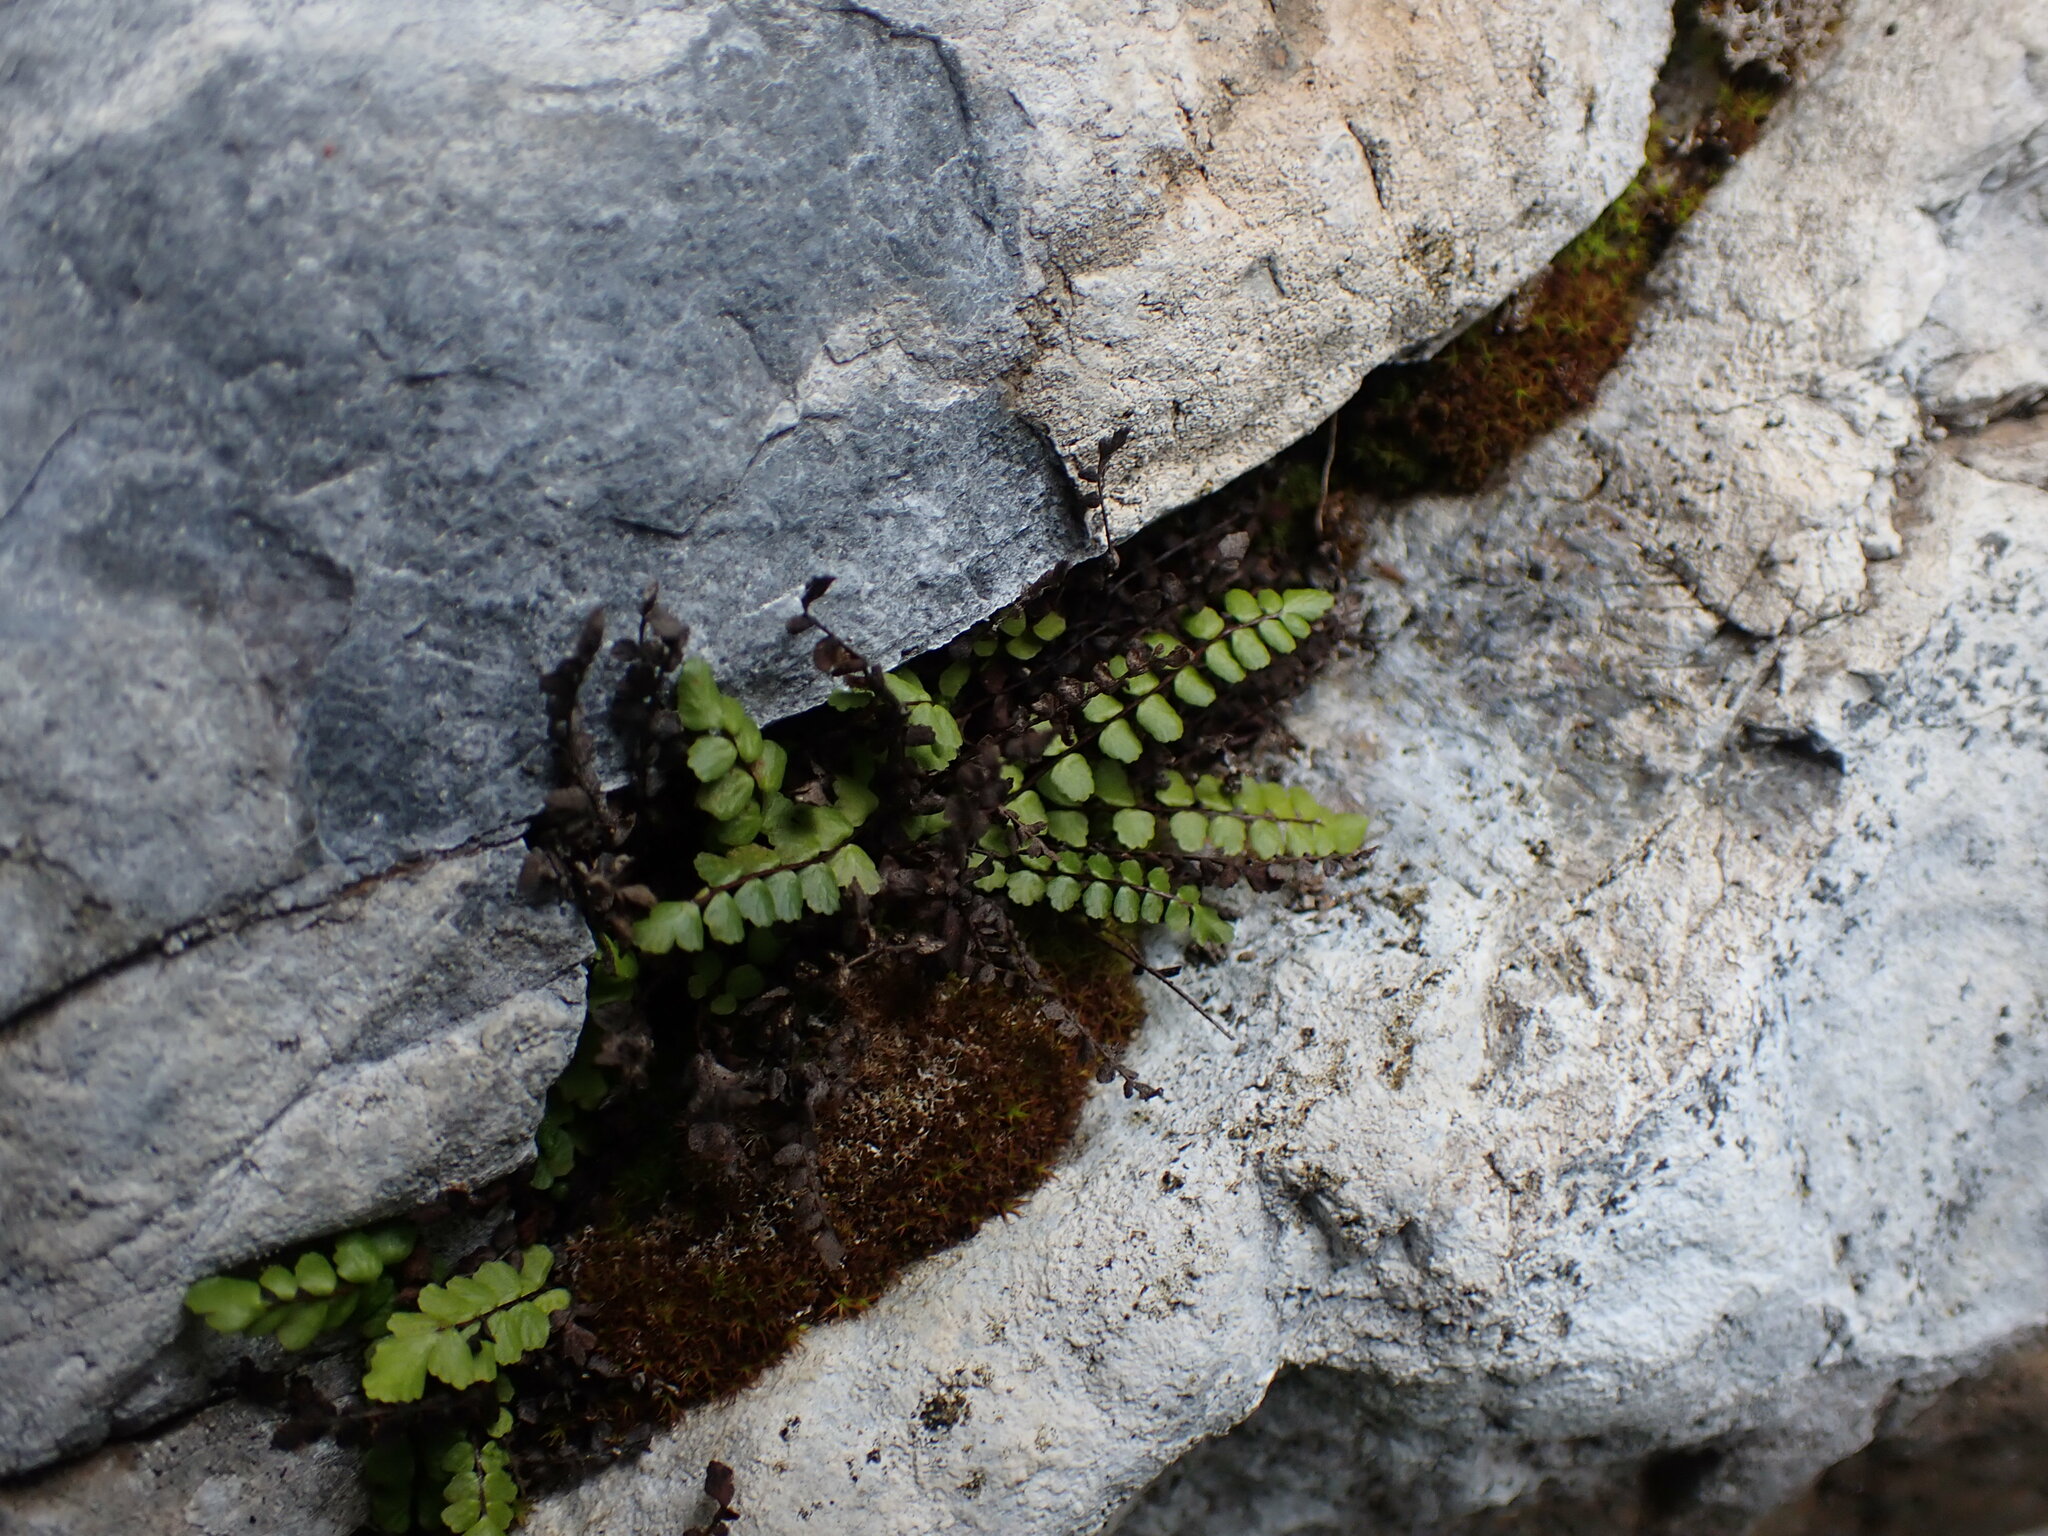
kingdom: Plantae
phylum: Tracheophyta
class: Polypodiopsida
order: Polypodiales
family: Aspleniaceae
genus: Asplenium
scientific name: Asplenium trichomanes
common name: Maidenhair spleenwort
